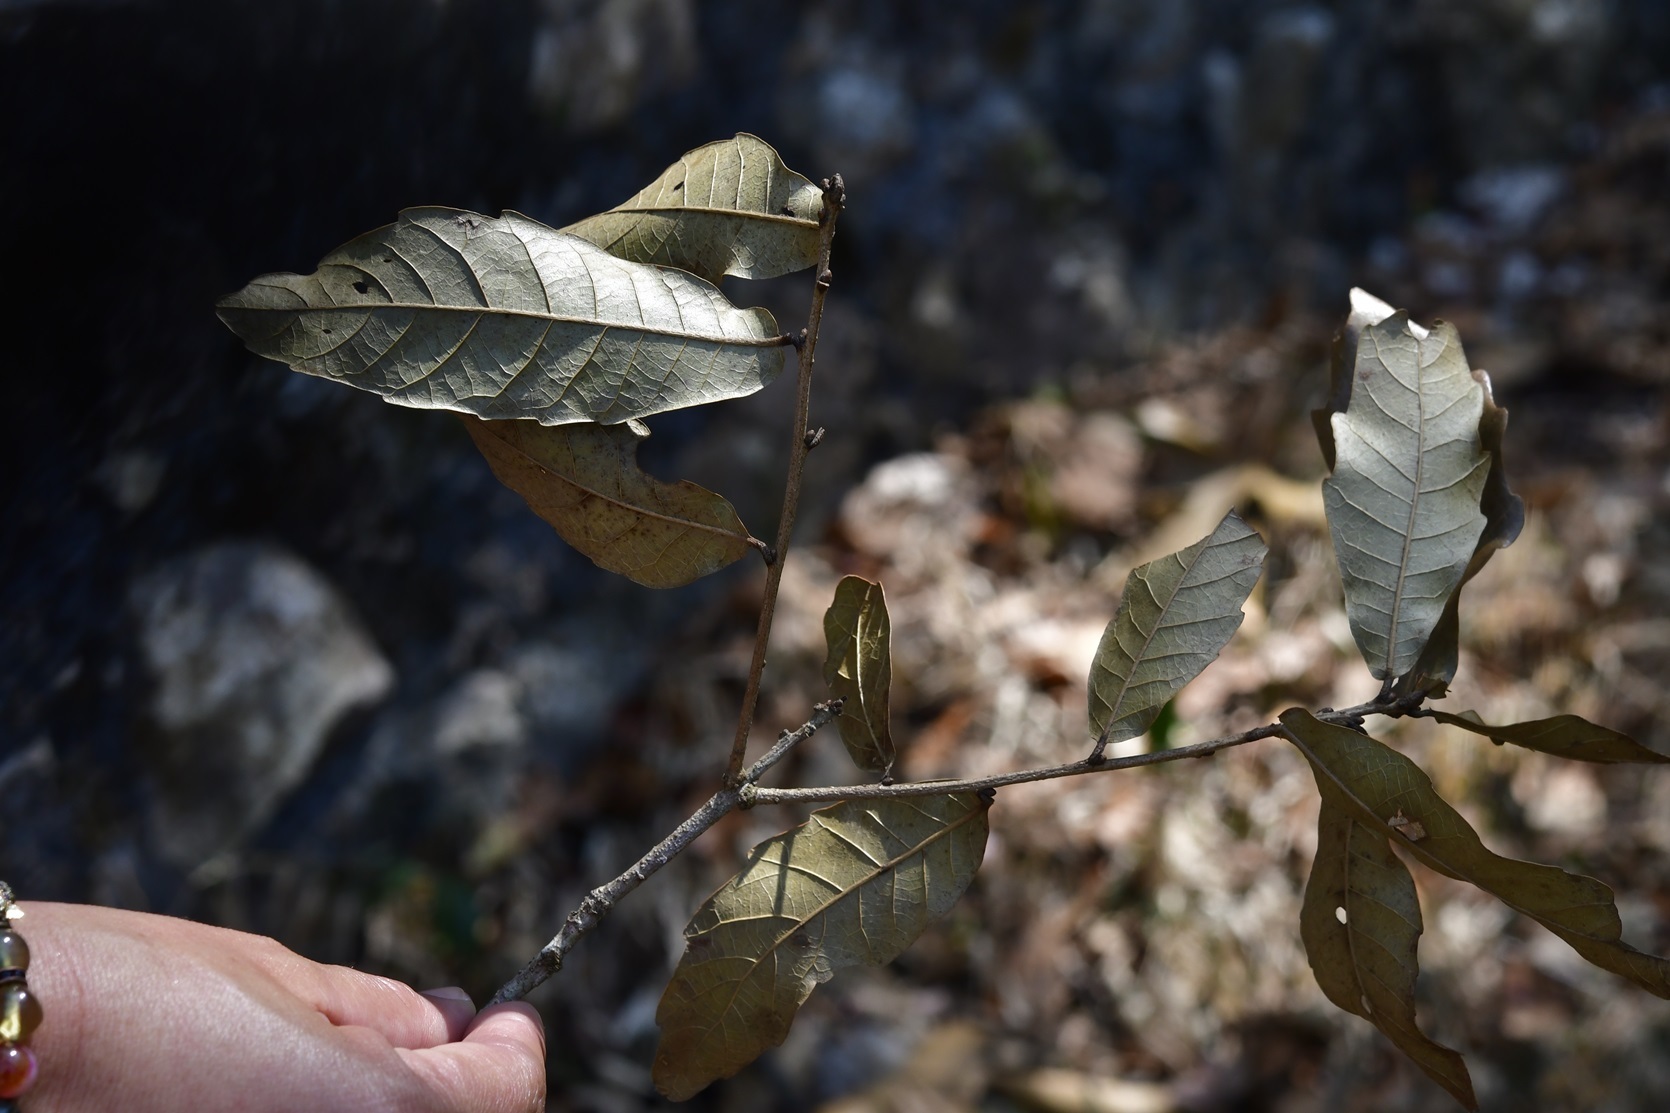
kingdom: Plantae
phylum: Tracheophyta
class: Magnoliopsida
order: Fagales
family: Fagaceae
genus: Quercus
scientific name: Quercus corrugata
